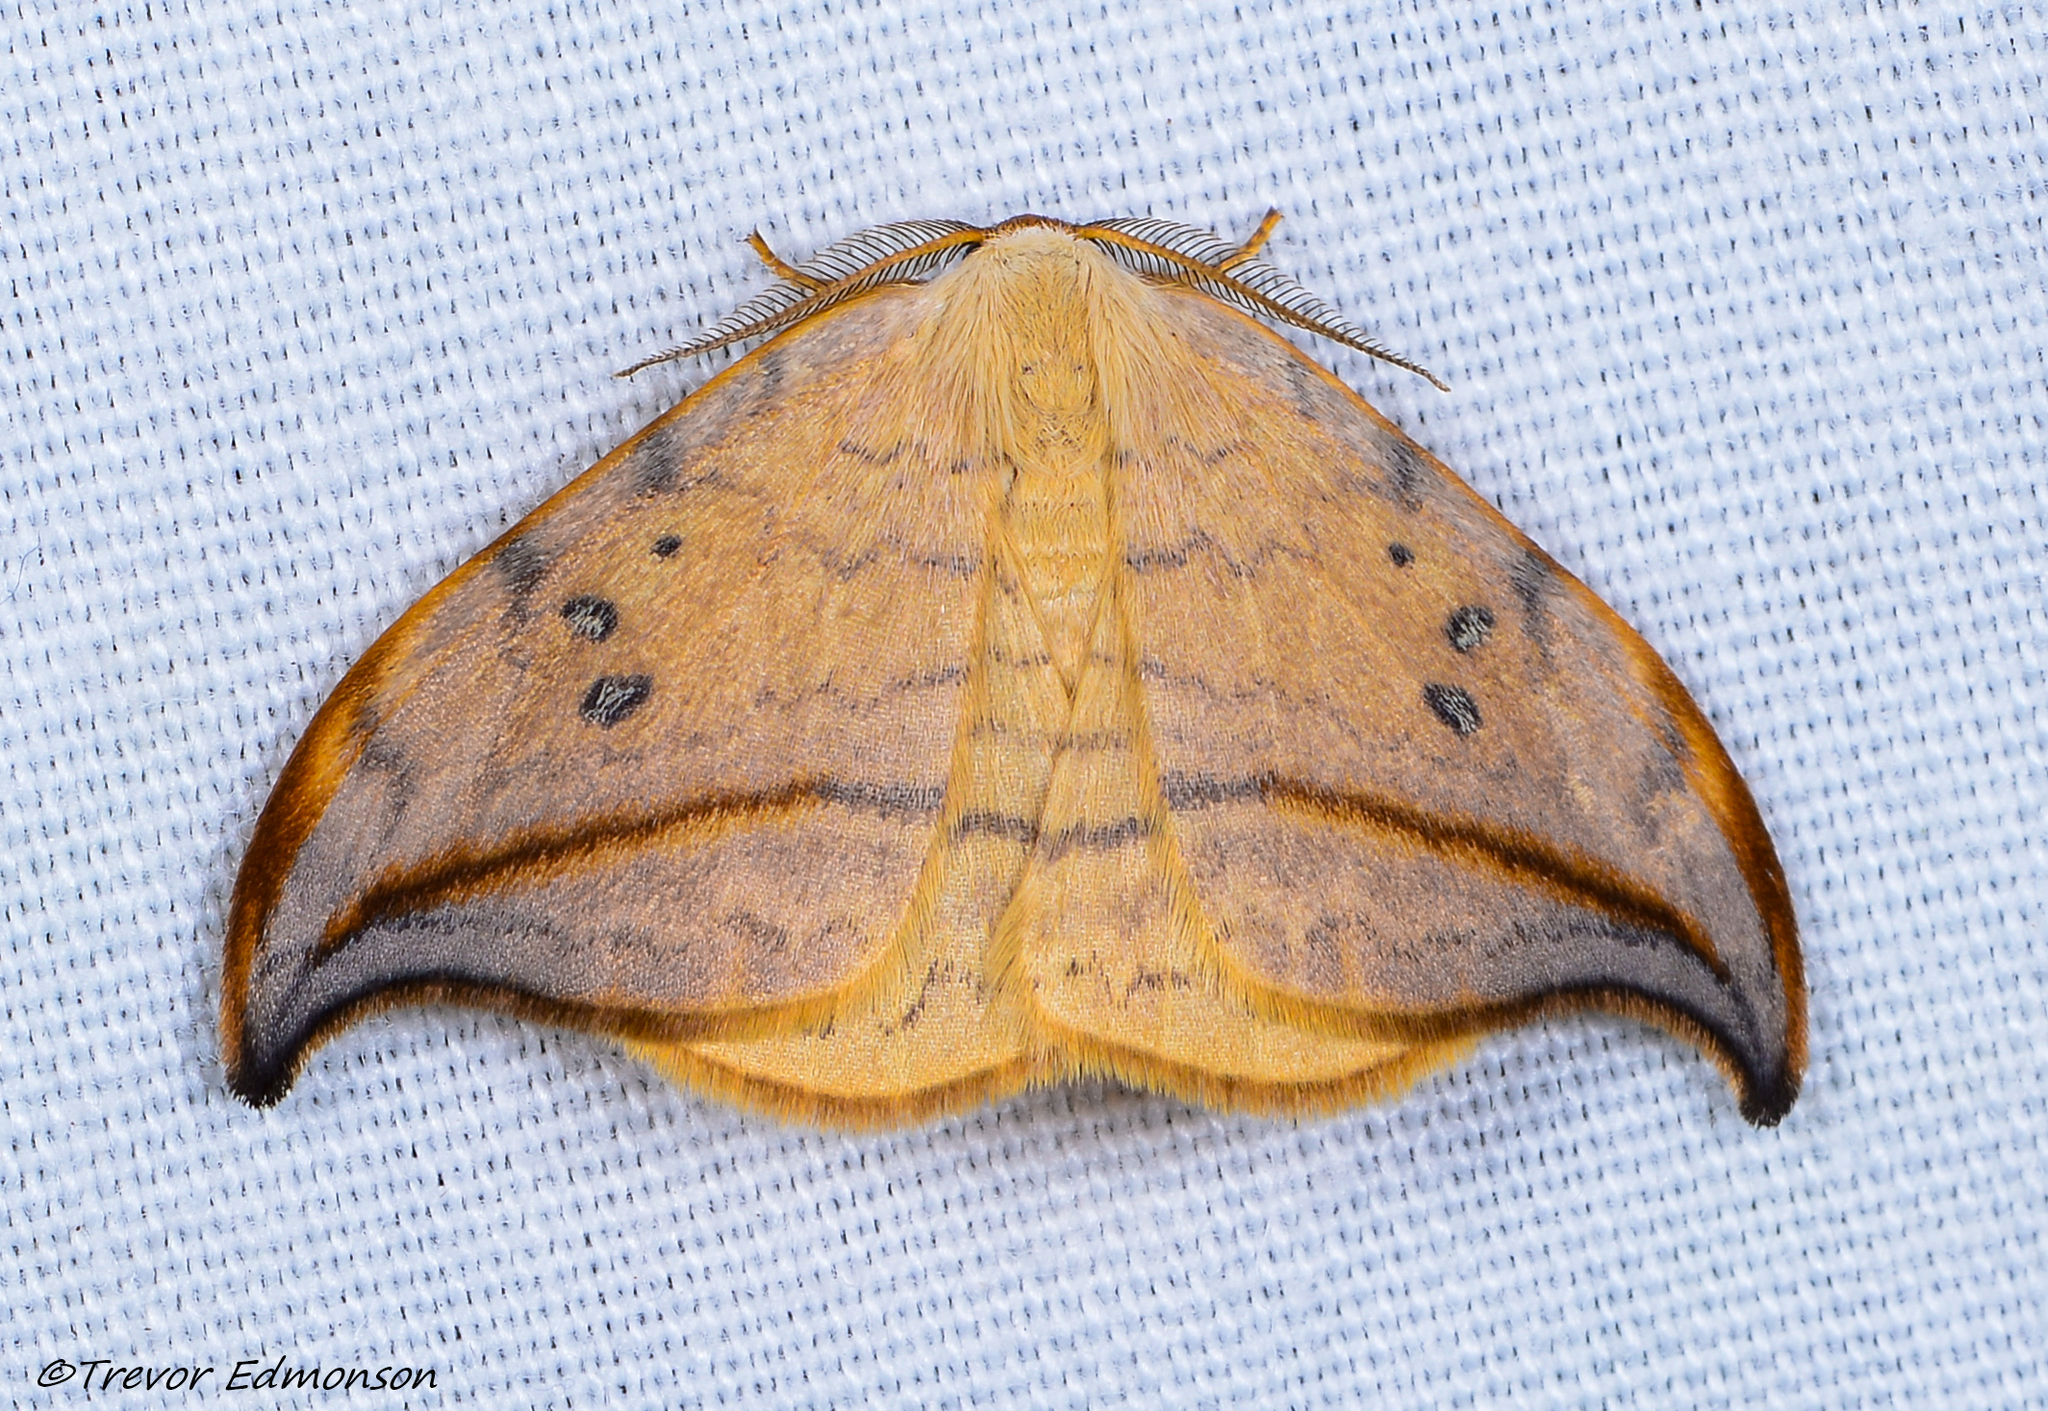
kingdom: Animalia
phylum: Arthropoda
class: Insecta
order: Lepidoptera
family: Drepanidae
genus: Drepana
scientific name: Drepana arcuata
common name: Arched hooktip moth
